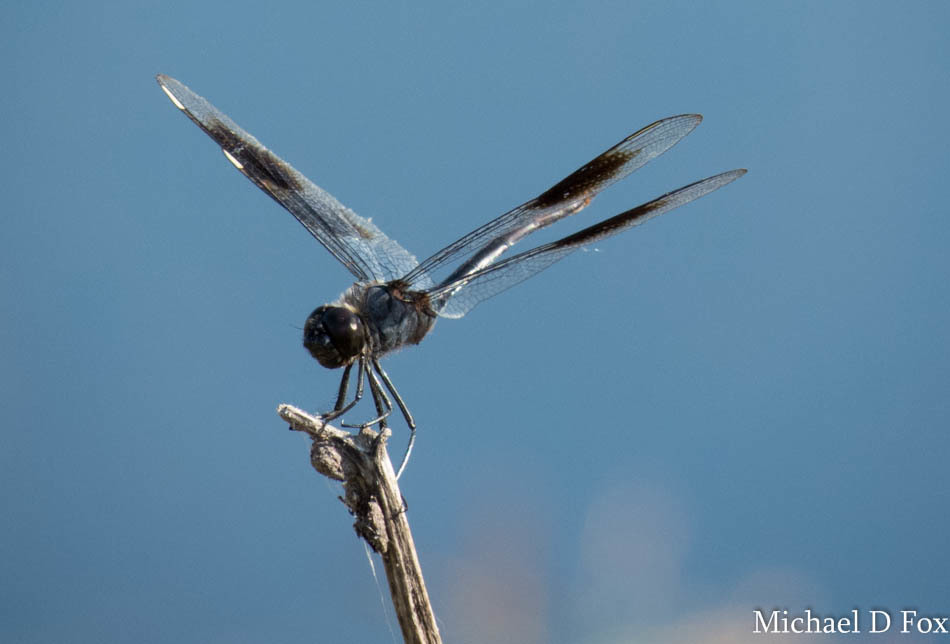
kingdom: Animalia
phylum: Arthropoda
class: Insecta
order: Odonata
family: Libellulidae
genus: Brachymesia
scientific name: Brachymesia gravida
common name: Four-spotted pennant
